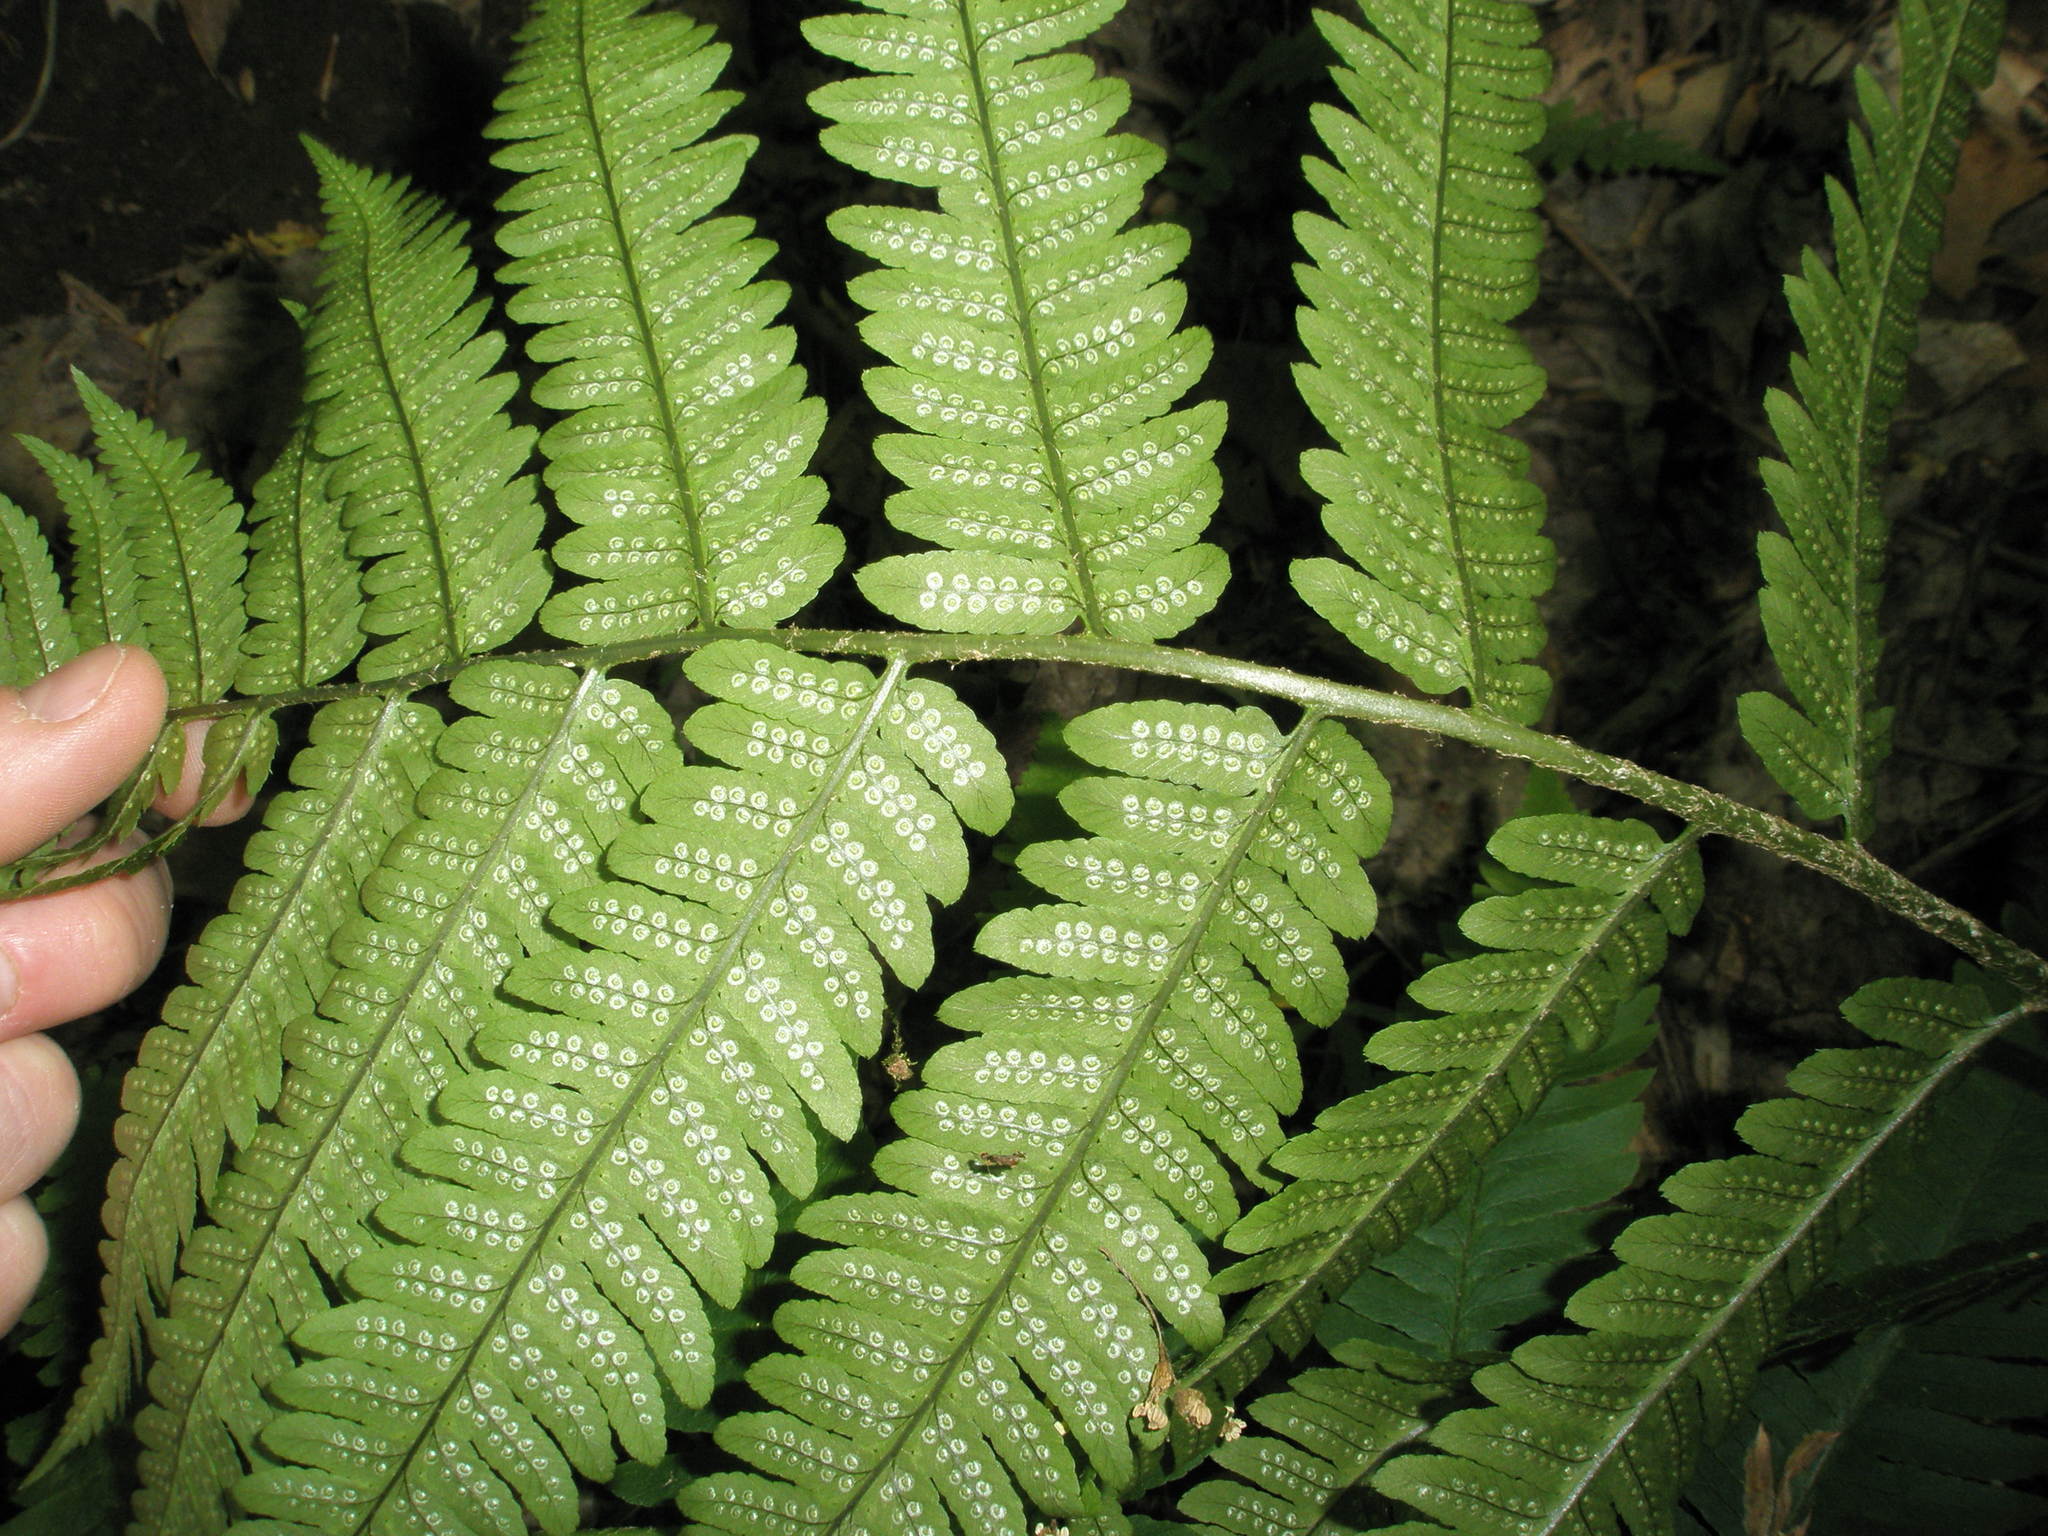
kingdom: Plantae
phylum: Tracheophyta
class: Polypodiopsida
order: Polypodiales
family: Dryopteridaceae
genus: Dryopteris
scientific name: Dryopteris goldieana
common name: Goldie's fern
